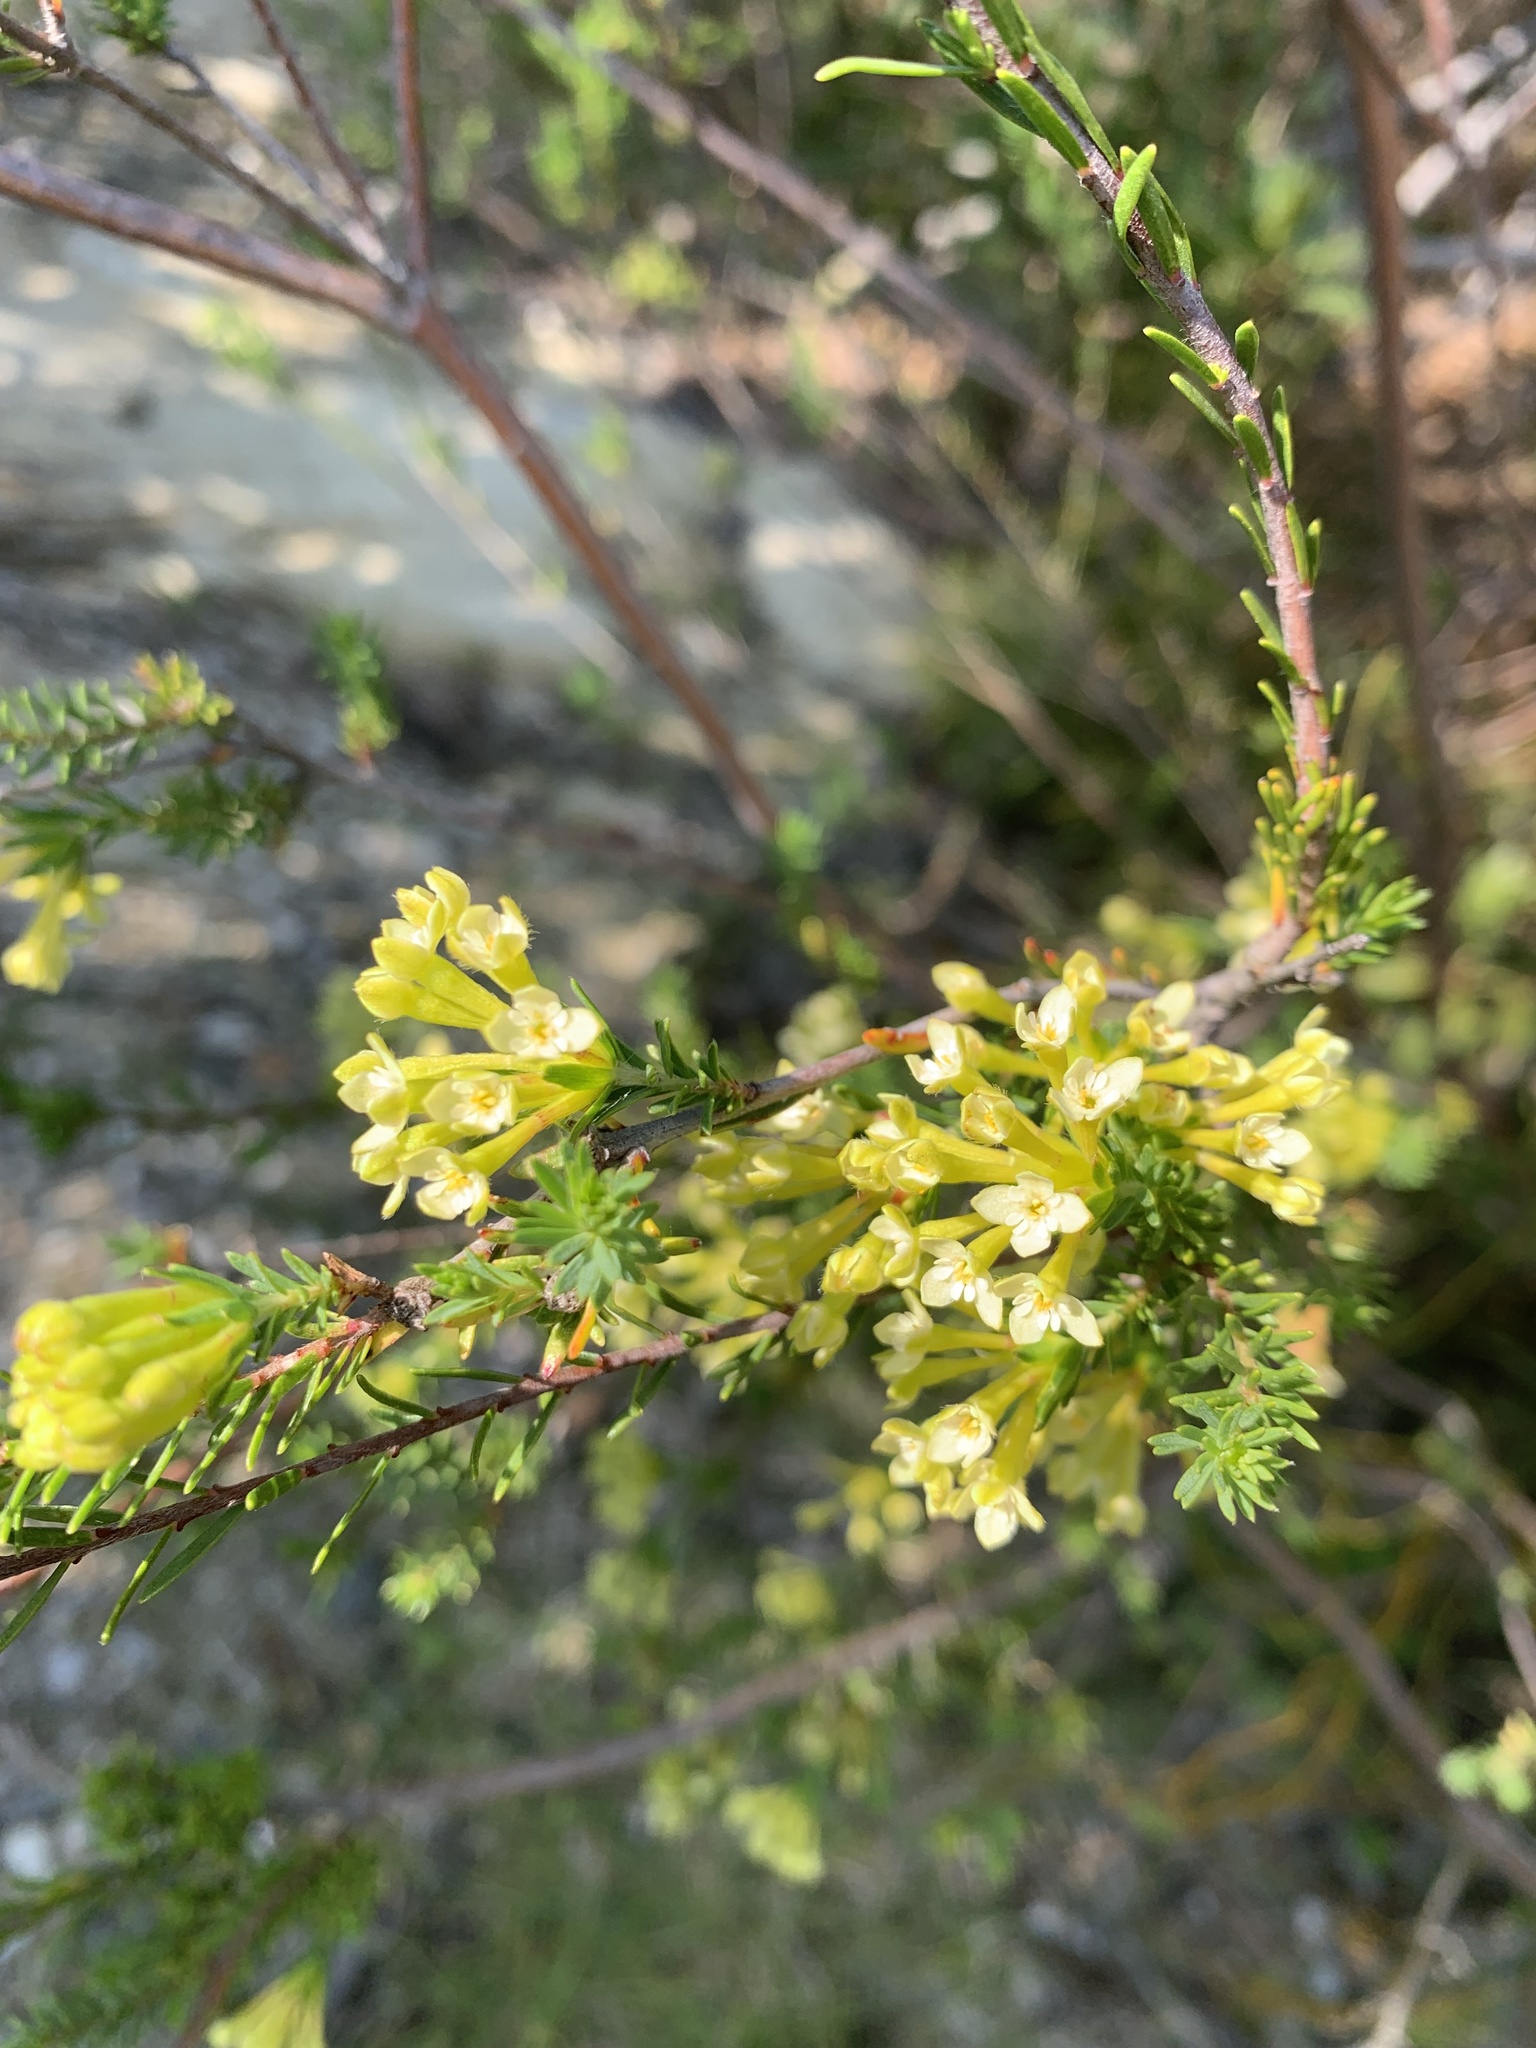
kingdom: Plantae
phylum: Tracheophyta
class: Magnoliopsida
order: Malvales
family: Thymelaeaceae
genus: Gnidia
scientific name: Gnidia squarrosa
